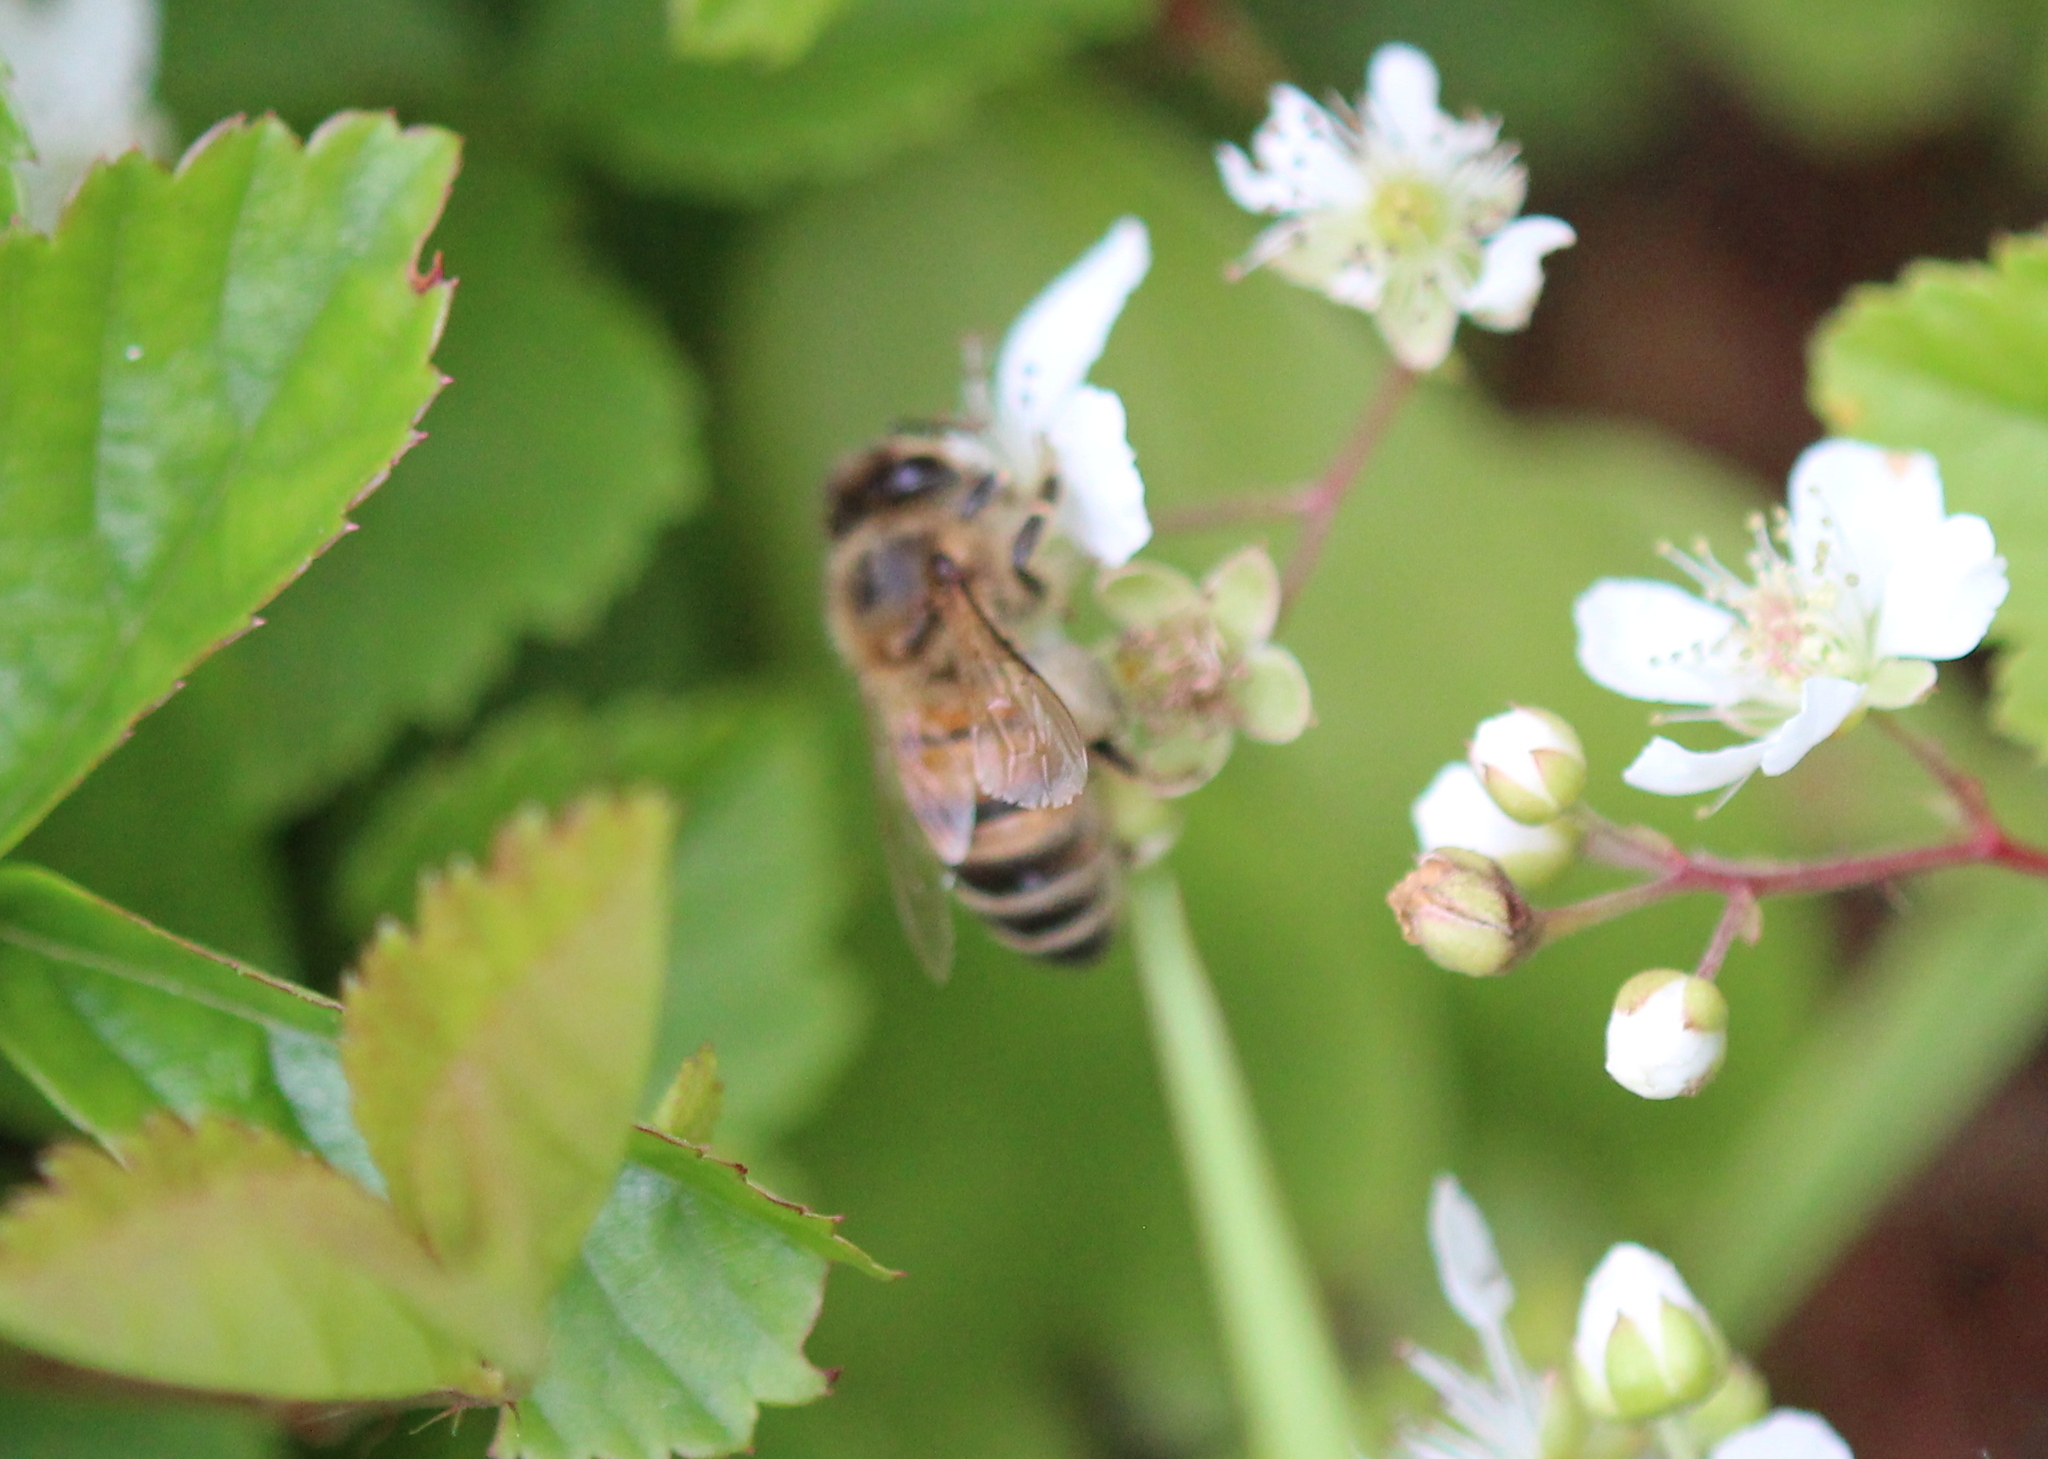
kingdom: Animalia
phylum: Arthropoda
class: Insecta
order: Hymenoptera
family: Apidae
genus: Apis
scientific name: Apis mellifera
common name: Honey bee
